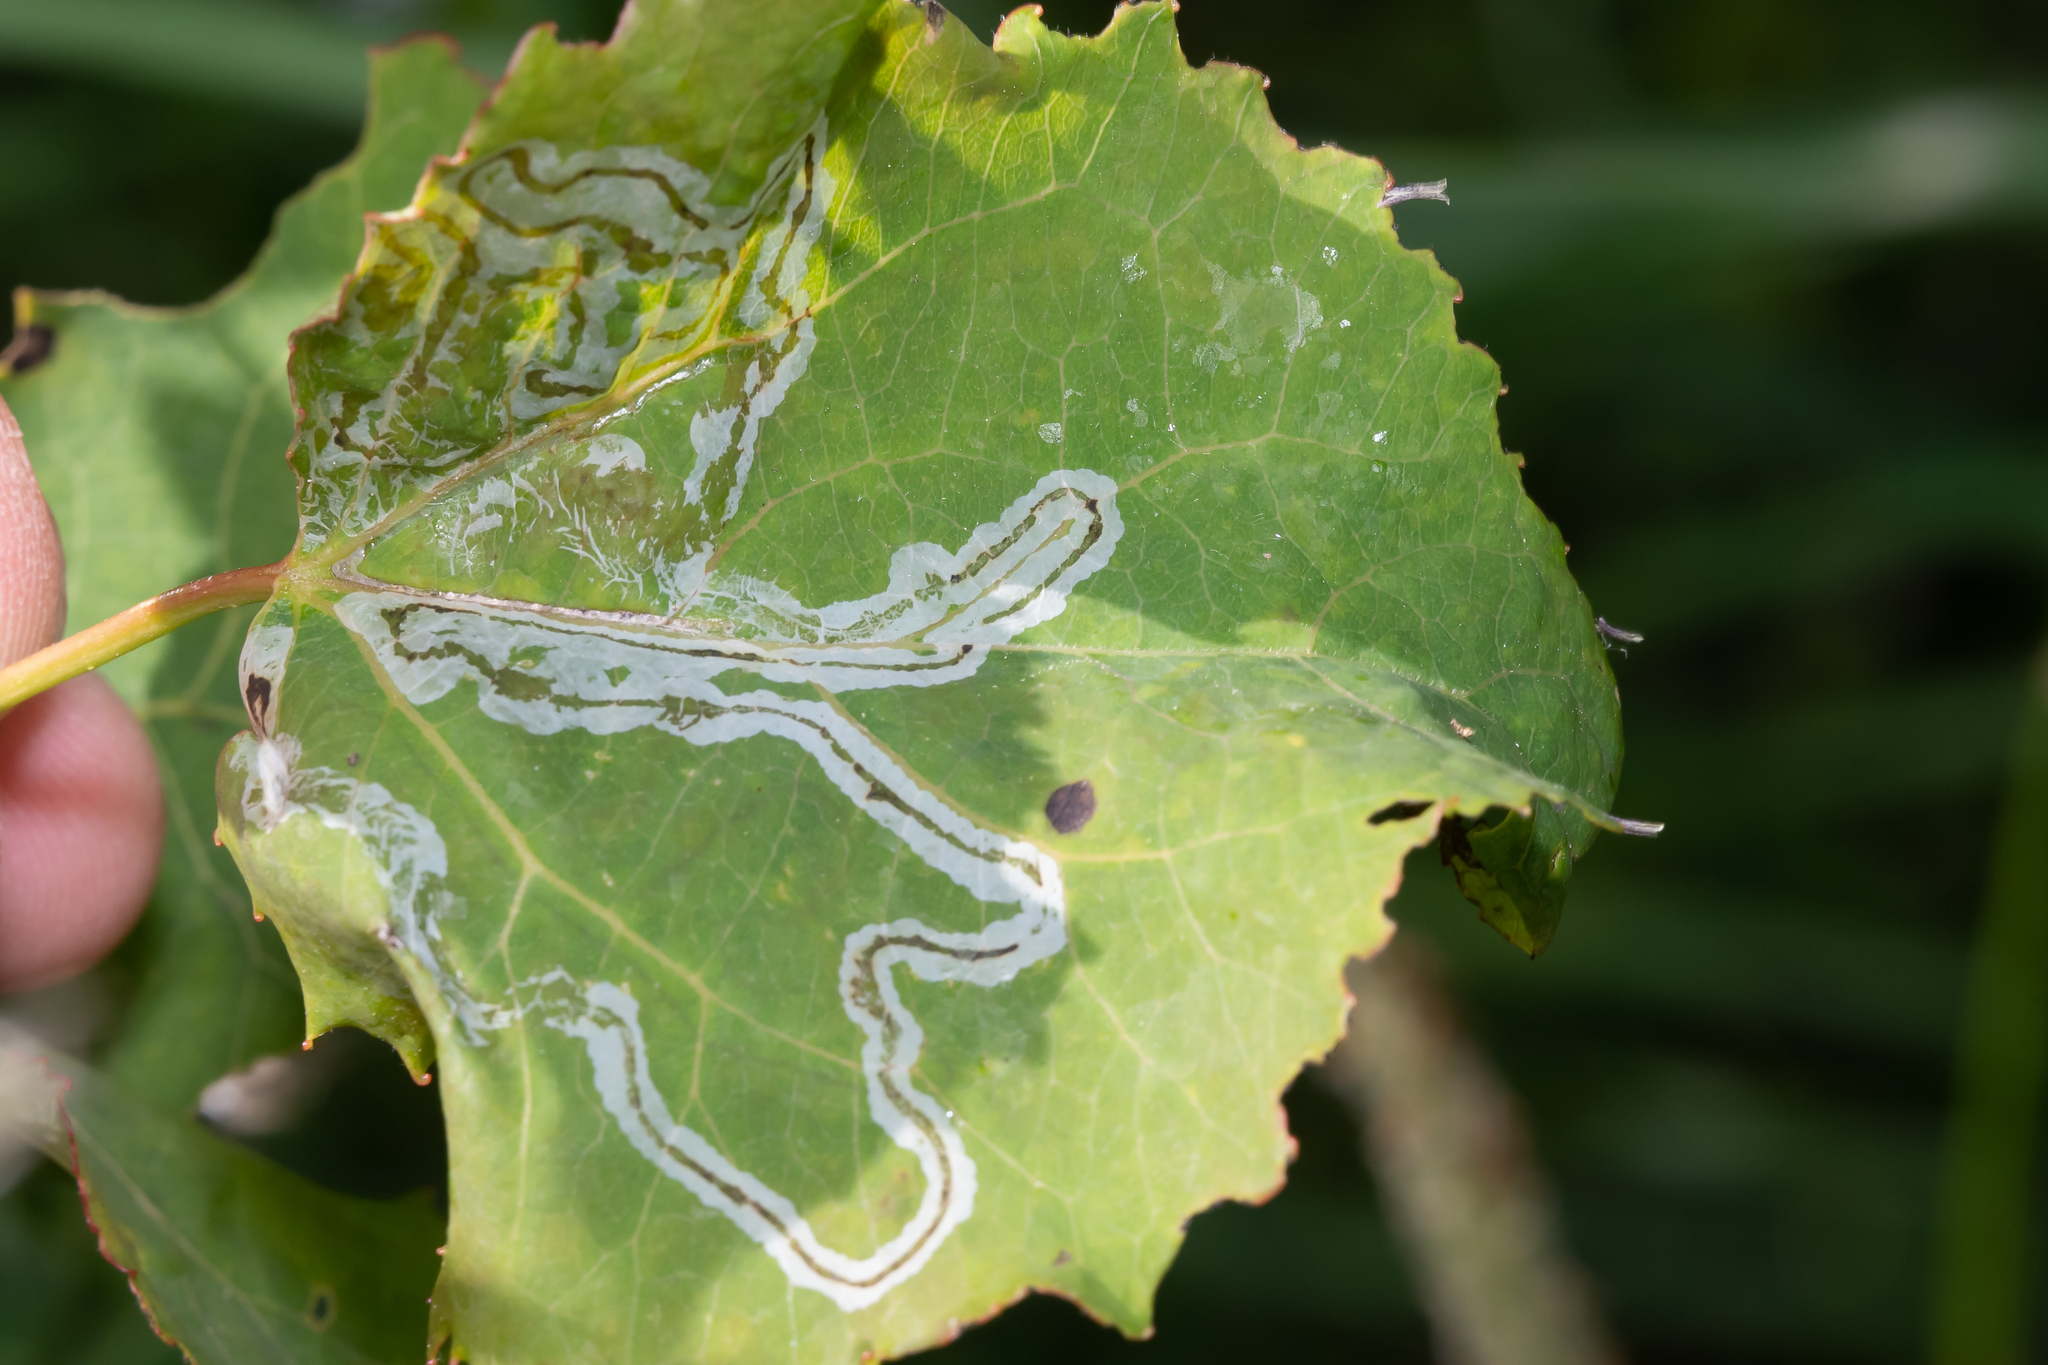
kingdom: Animalia
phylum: Arthropoda
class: Insecta
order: Lepidoptera
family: Gracillariidae
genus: Phyllocnistis
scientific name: Phyllocnistis labyrinthella
